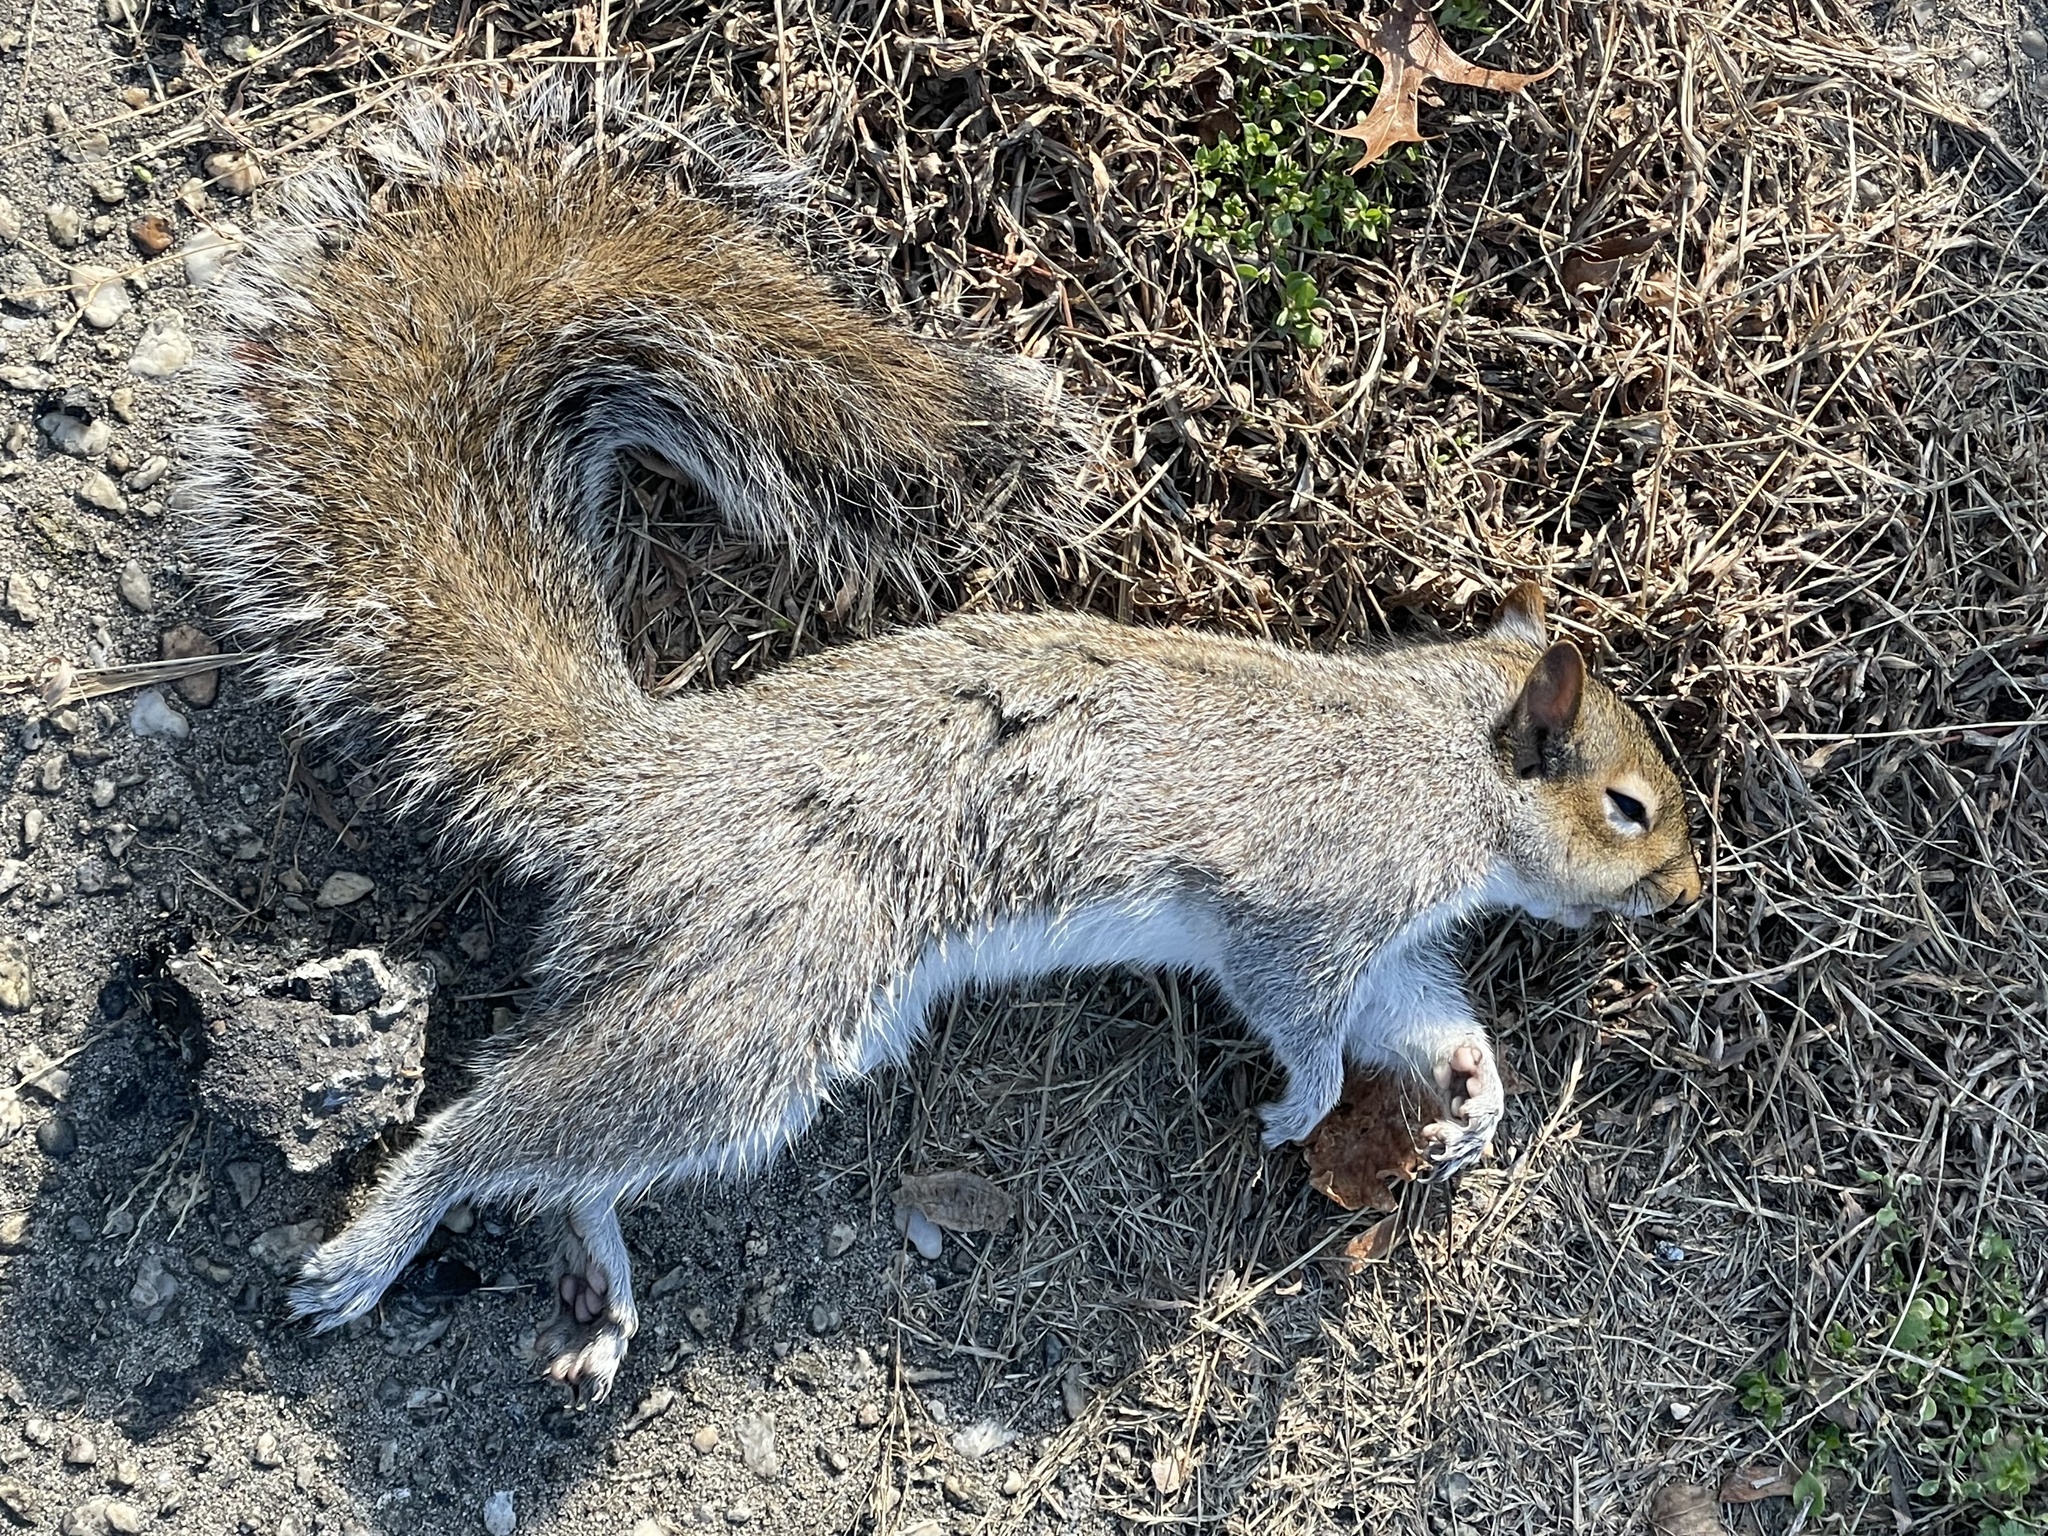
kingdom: Animalia
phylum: Chordata
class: Mammalia
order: Rodentia
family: Sciuridae
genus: Sciurus
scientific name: Sciurus carolinensis
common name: Eastern gray squirrel
